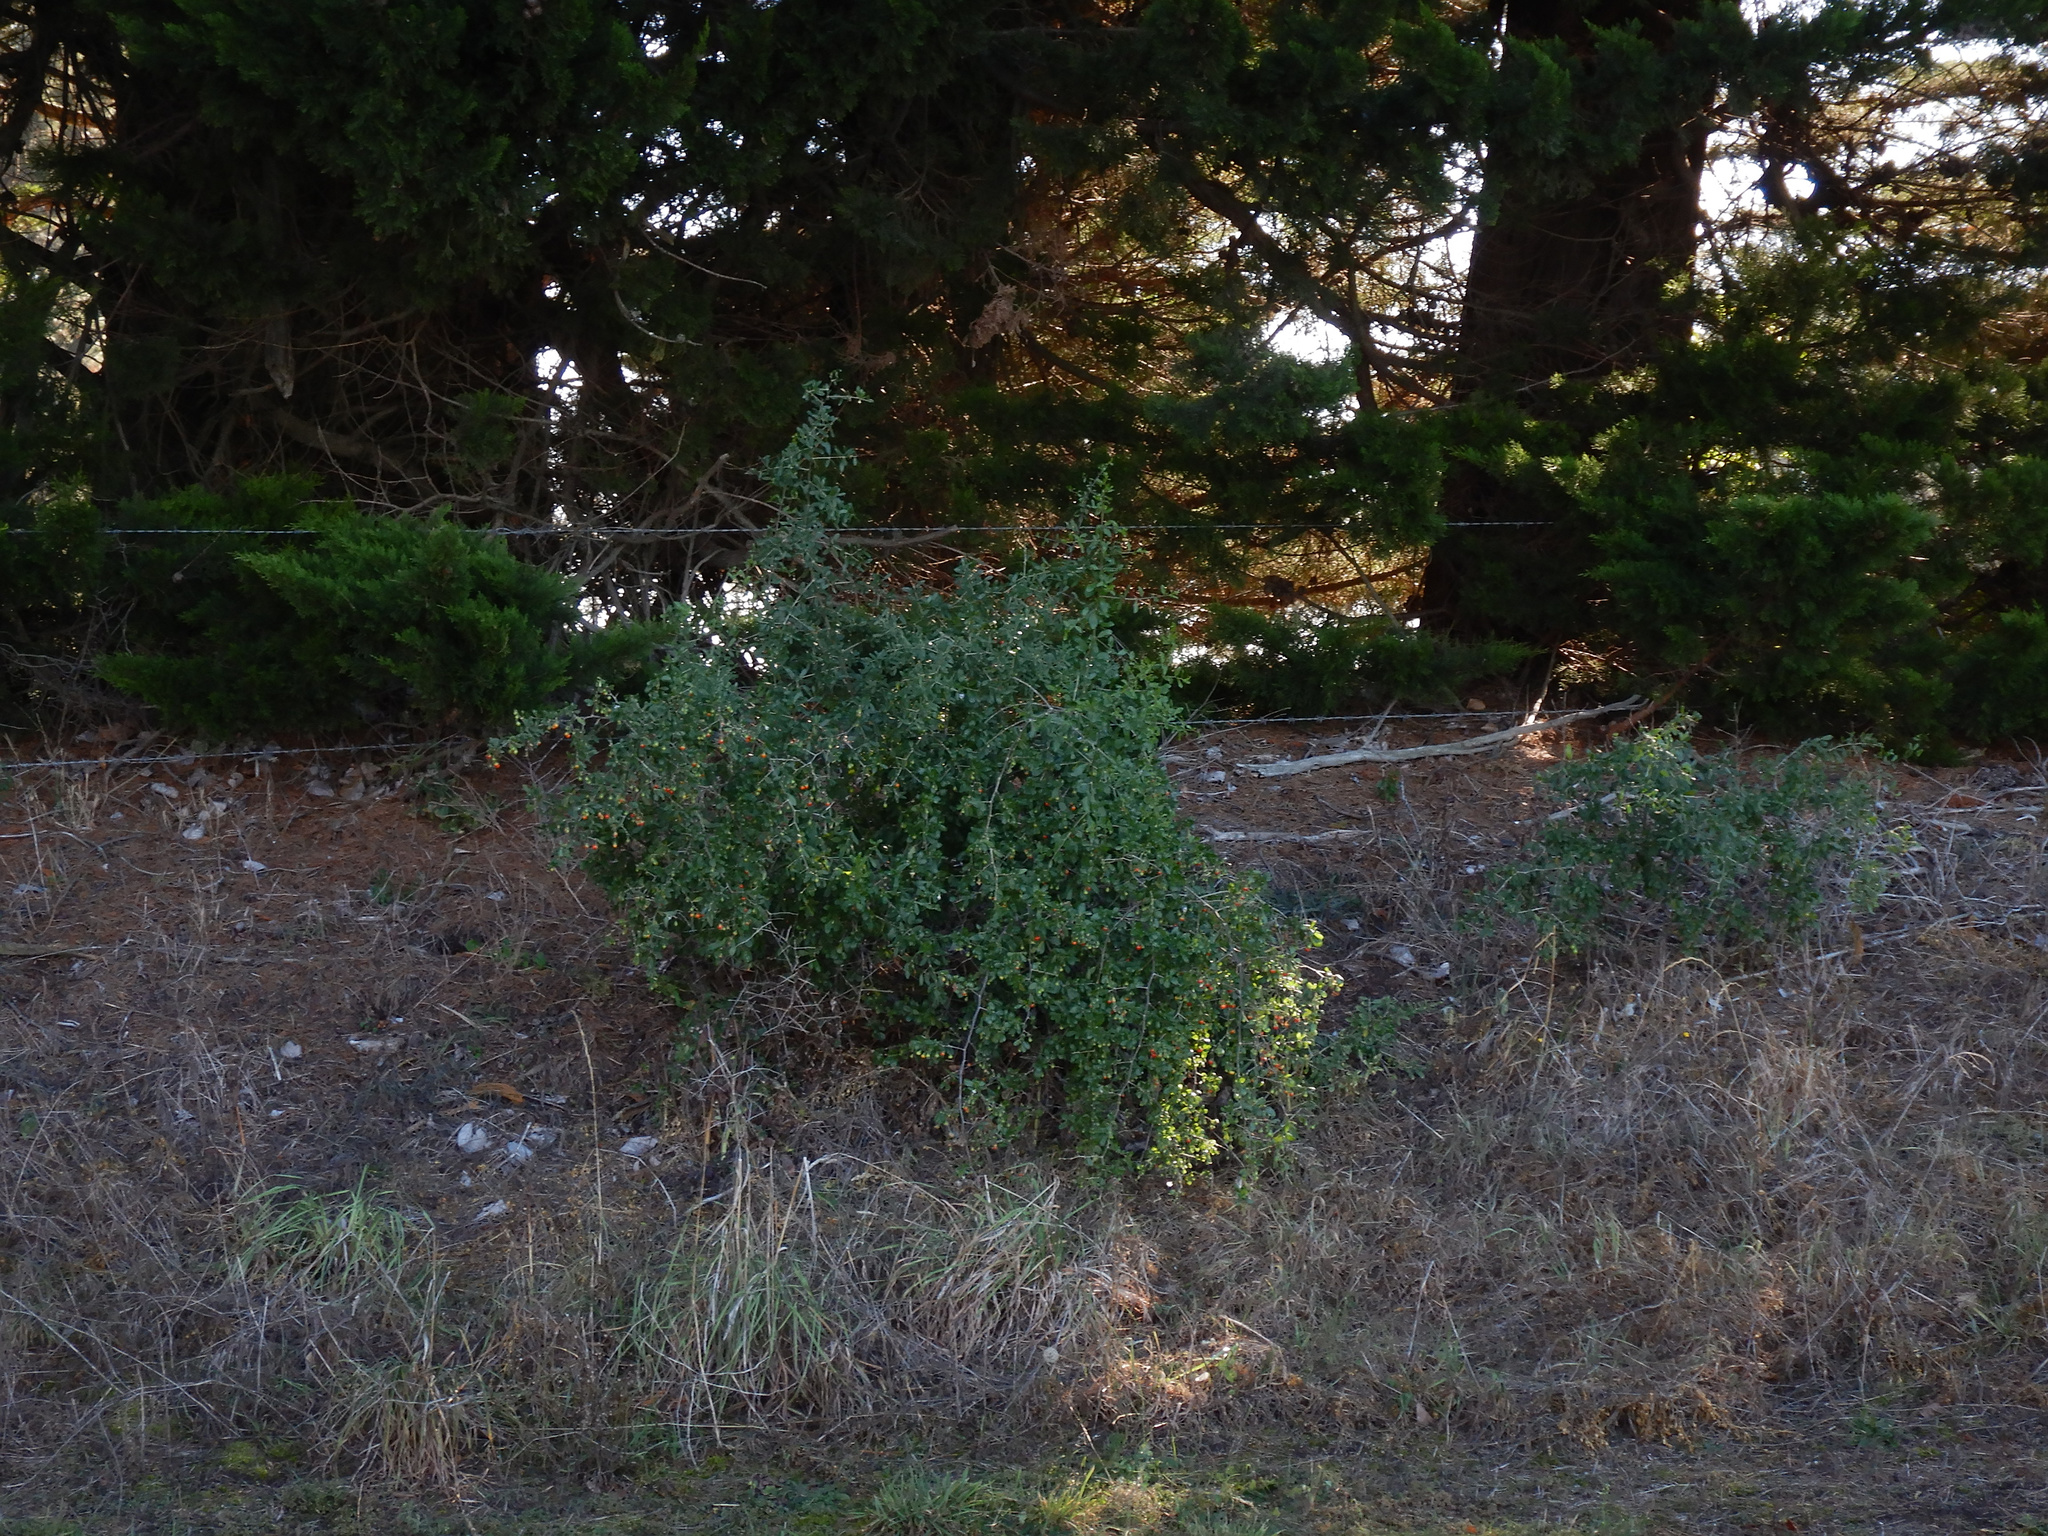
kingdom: Plantae
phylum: Tracheophyta
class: Magnoliopsida
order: Solanales
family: Solanaceae
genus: Lycium
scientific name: Lycium ferocissimum
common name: African boxthorn
